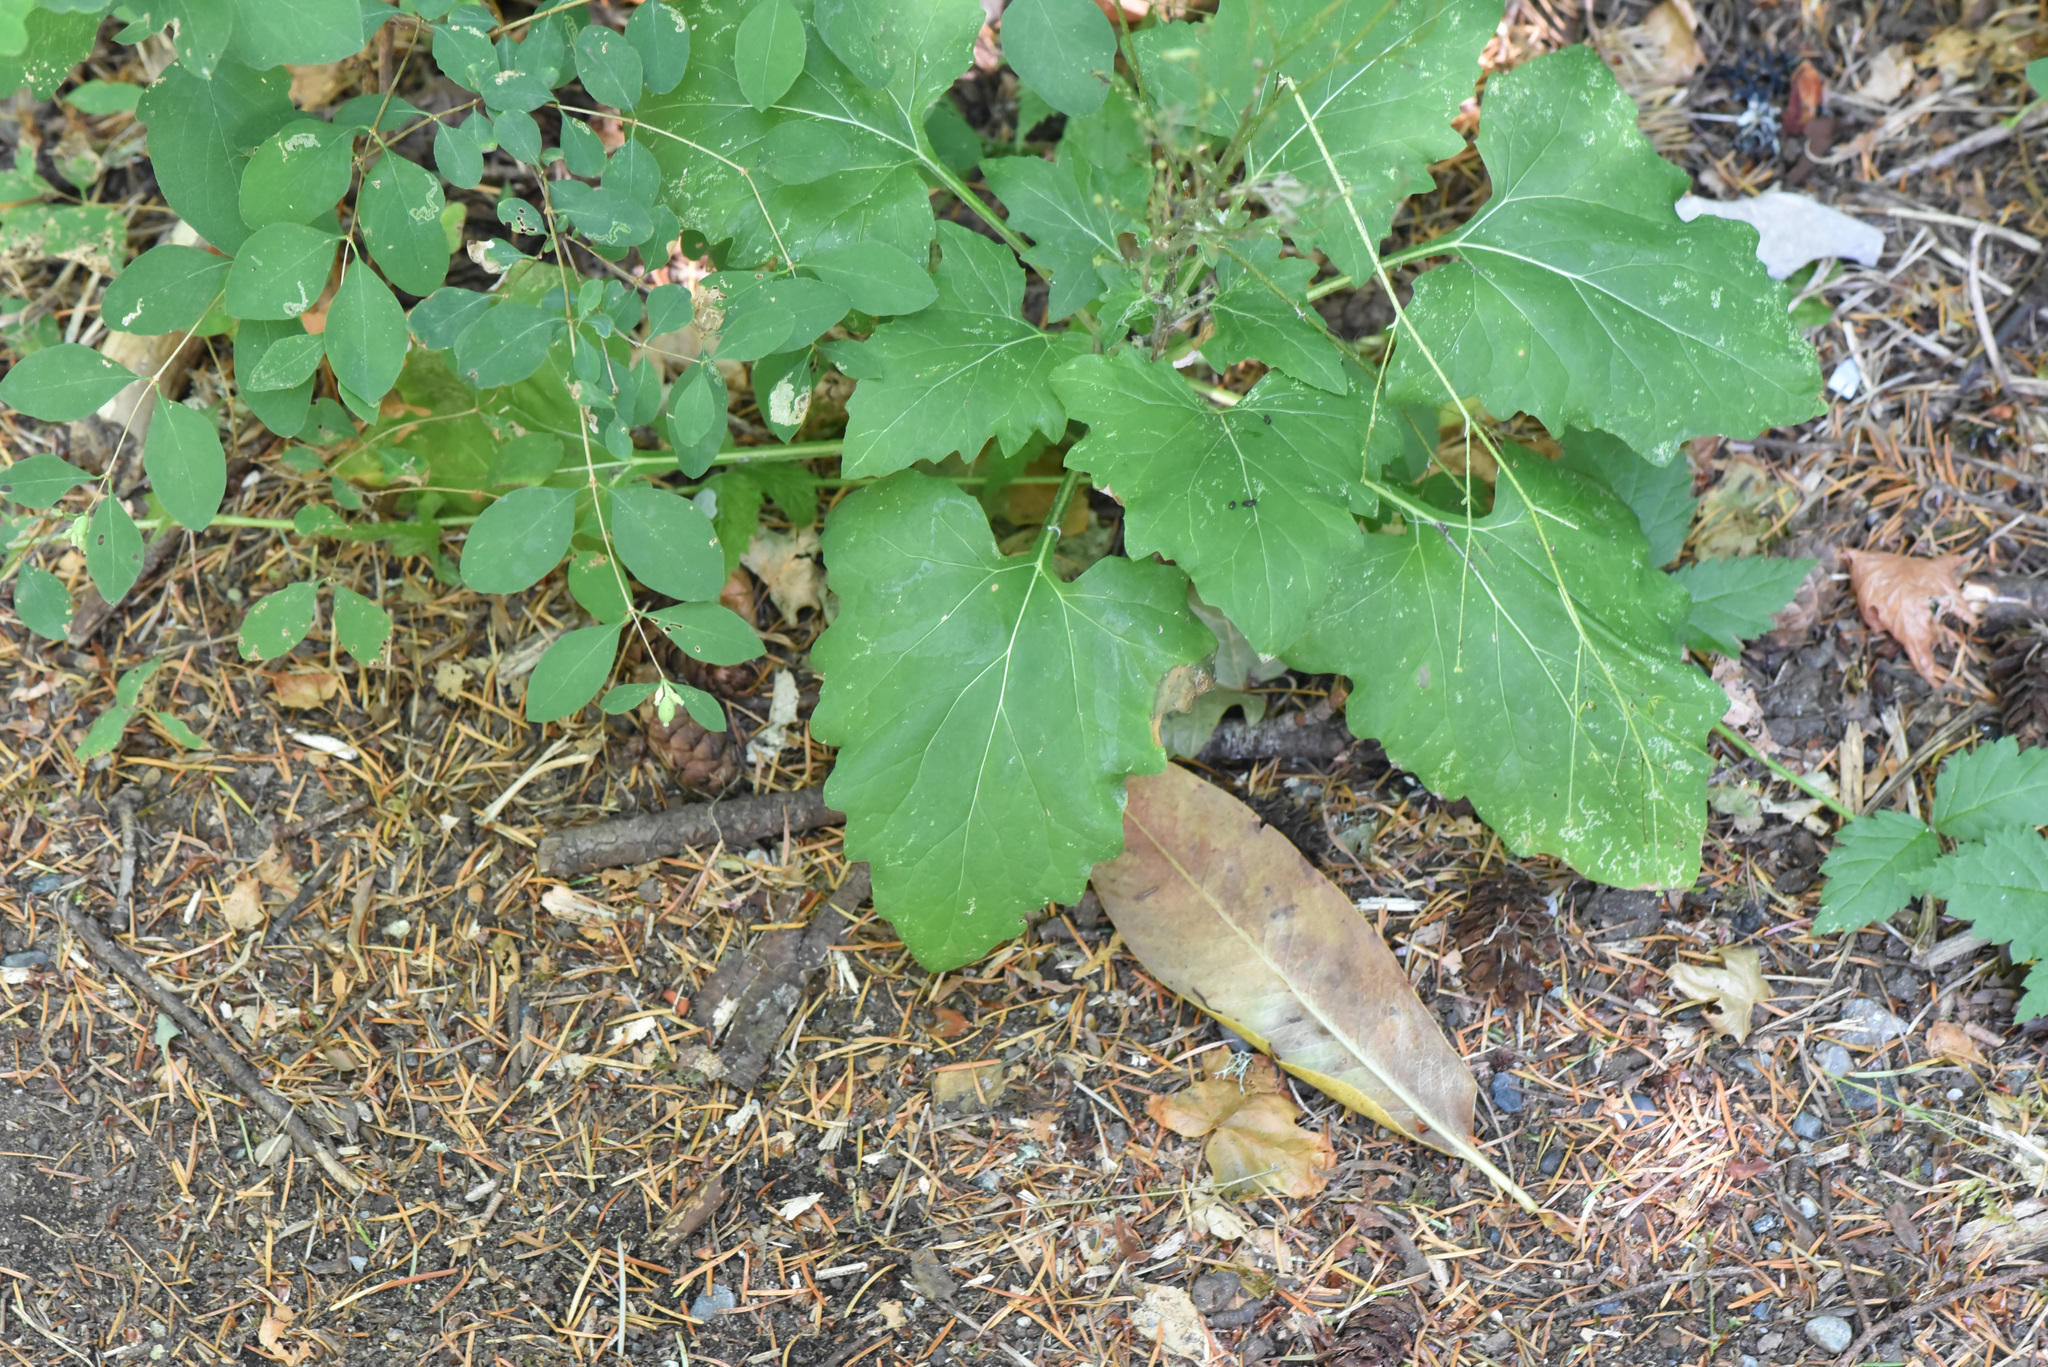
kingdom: Plantae
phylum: Tracheophyta
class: Magnoliopsida
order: Asterales
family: Asteraceae
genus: Adenocaulon
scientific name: Adenocaulon bicolor
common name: Trailplant
